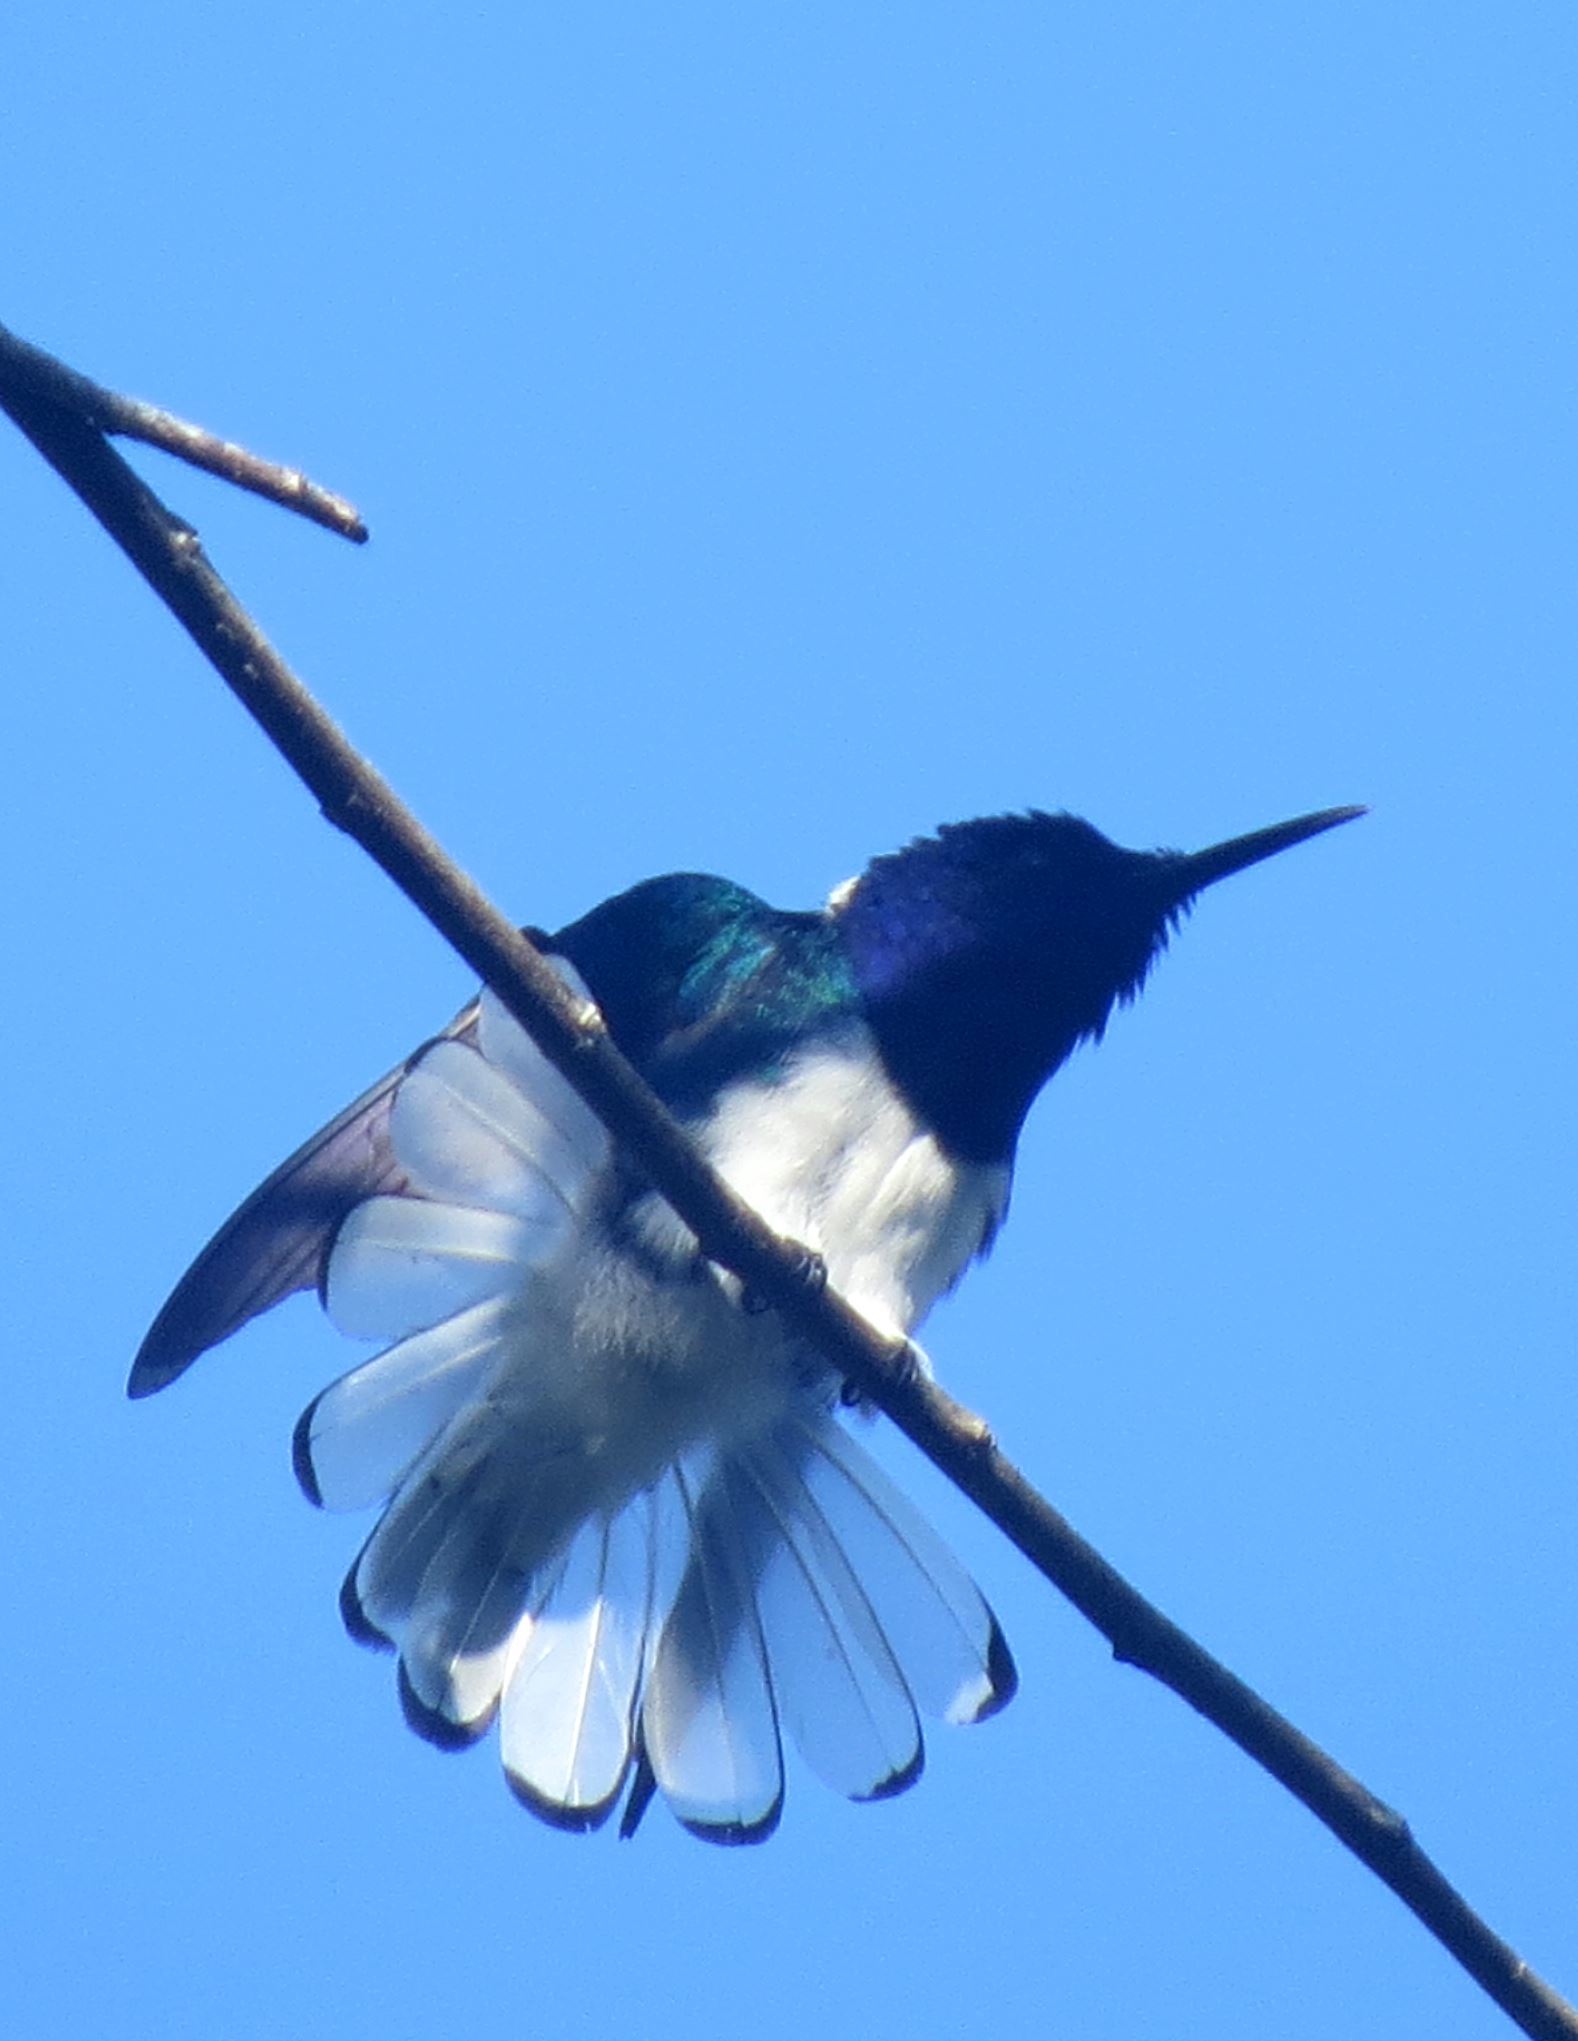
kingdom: Animalia
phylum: Chordata
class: Aves
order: Apodiformes
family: Trochilidae
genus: Florisuga
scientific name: Florisuga mellivora
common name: White-necked jacobin
